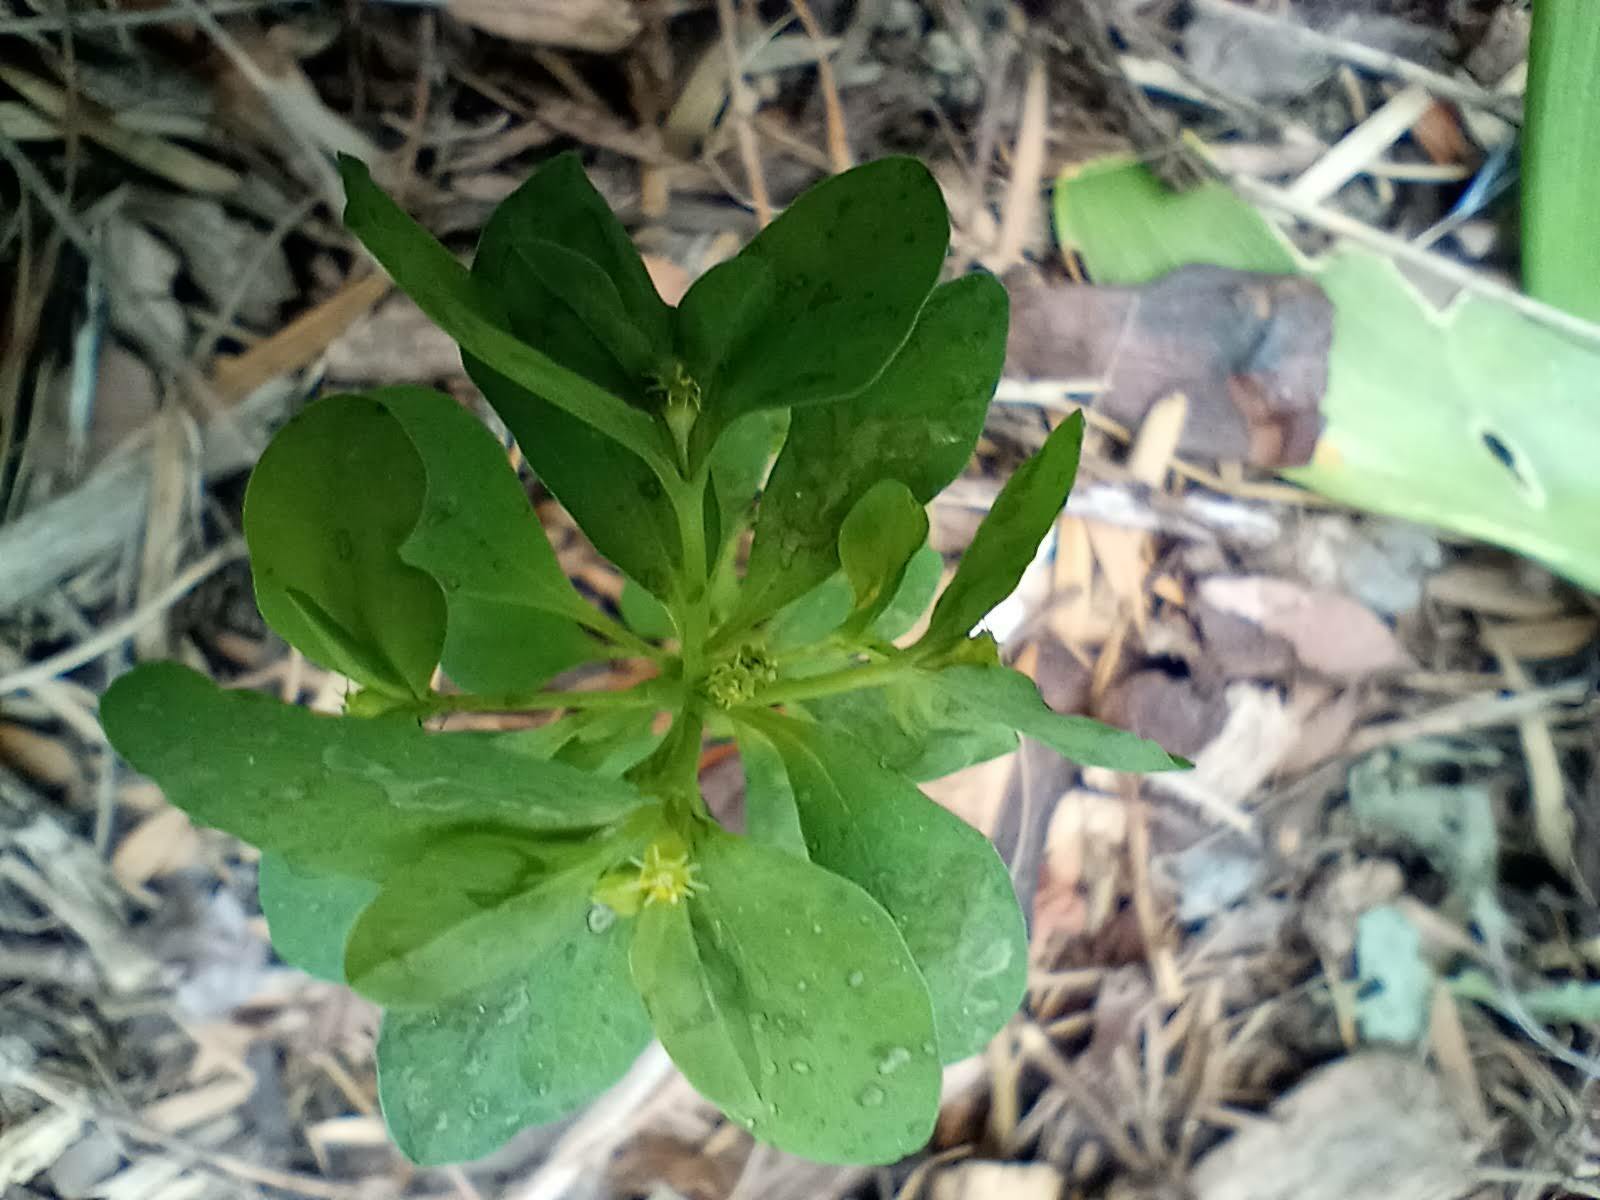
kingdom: Plantae
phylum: Tracheophyta
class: Magnoliopsida
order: Malpighiales
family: Euphorbiaceae
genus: Euphorbia
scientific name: Euphorbia peplus
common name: Petty spurge
